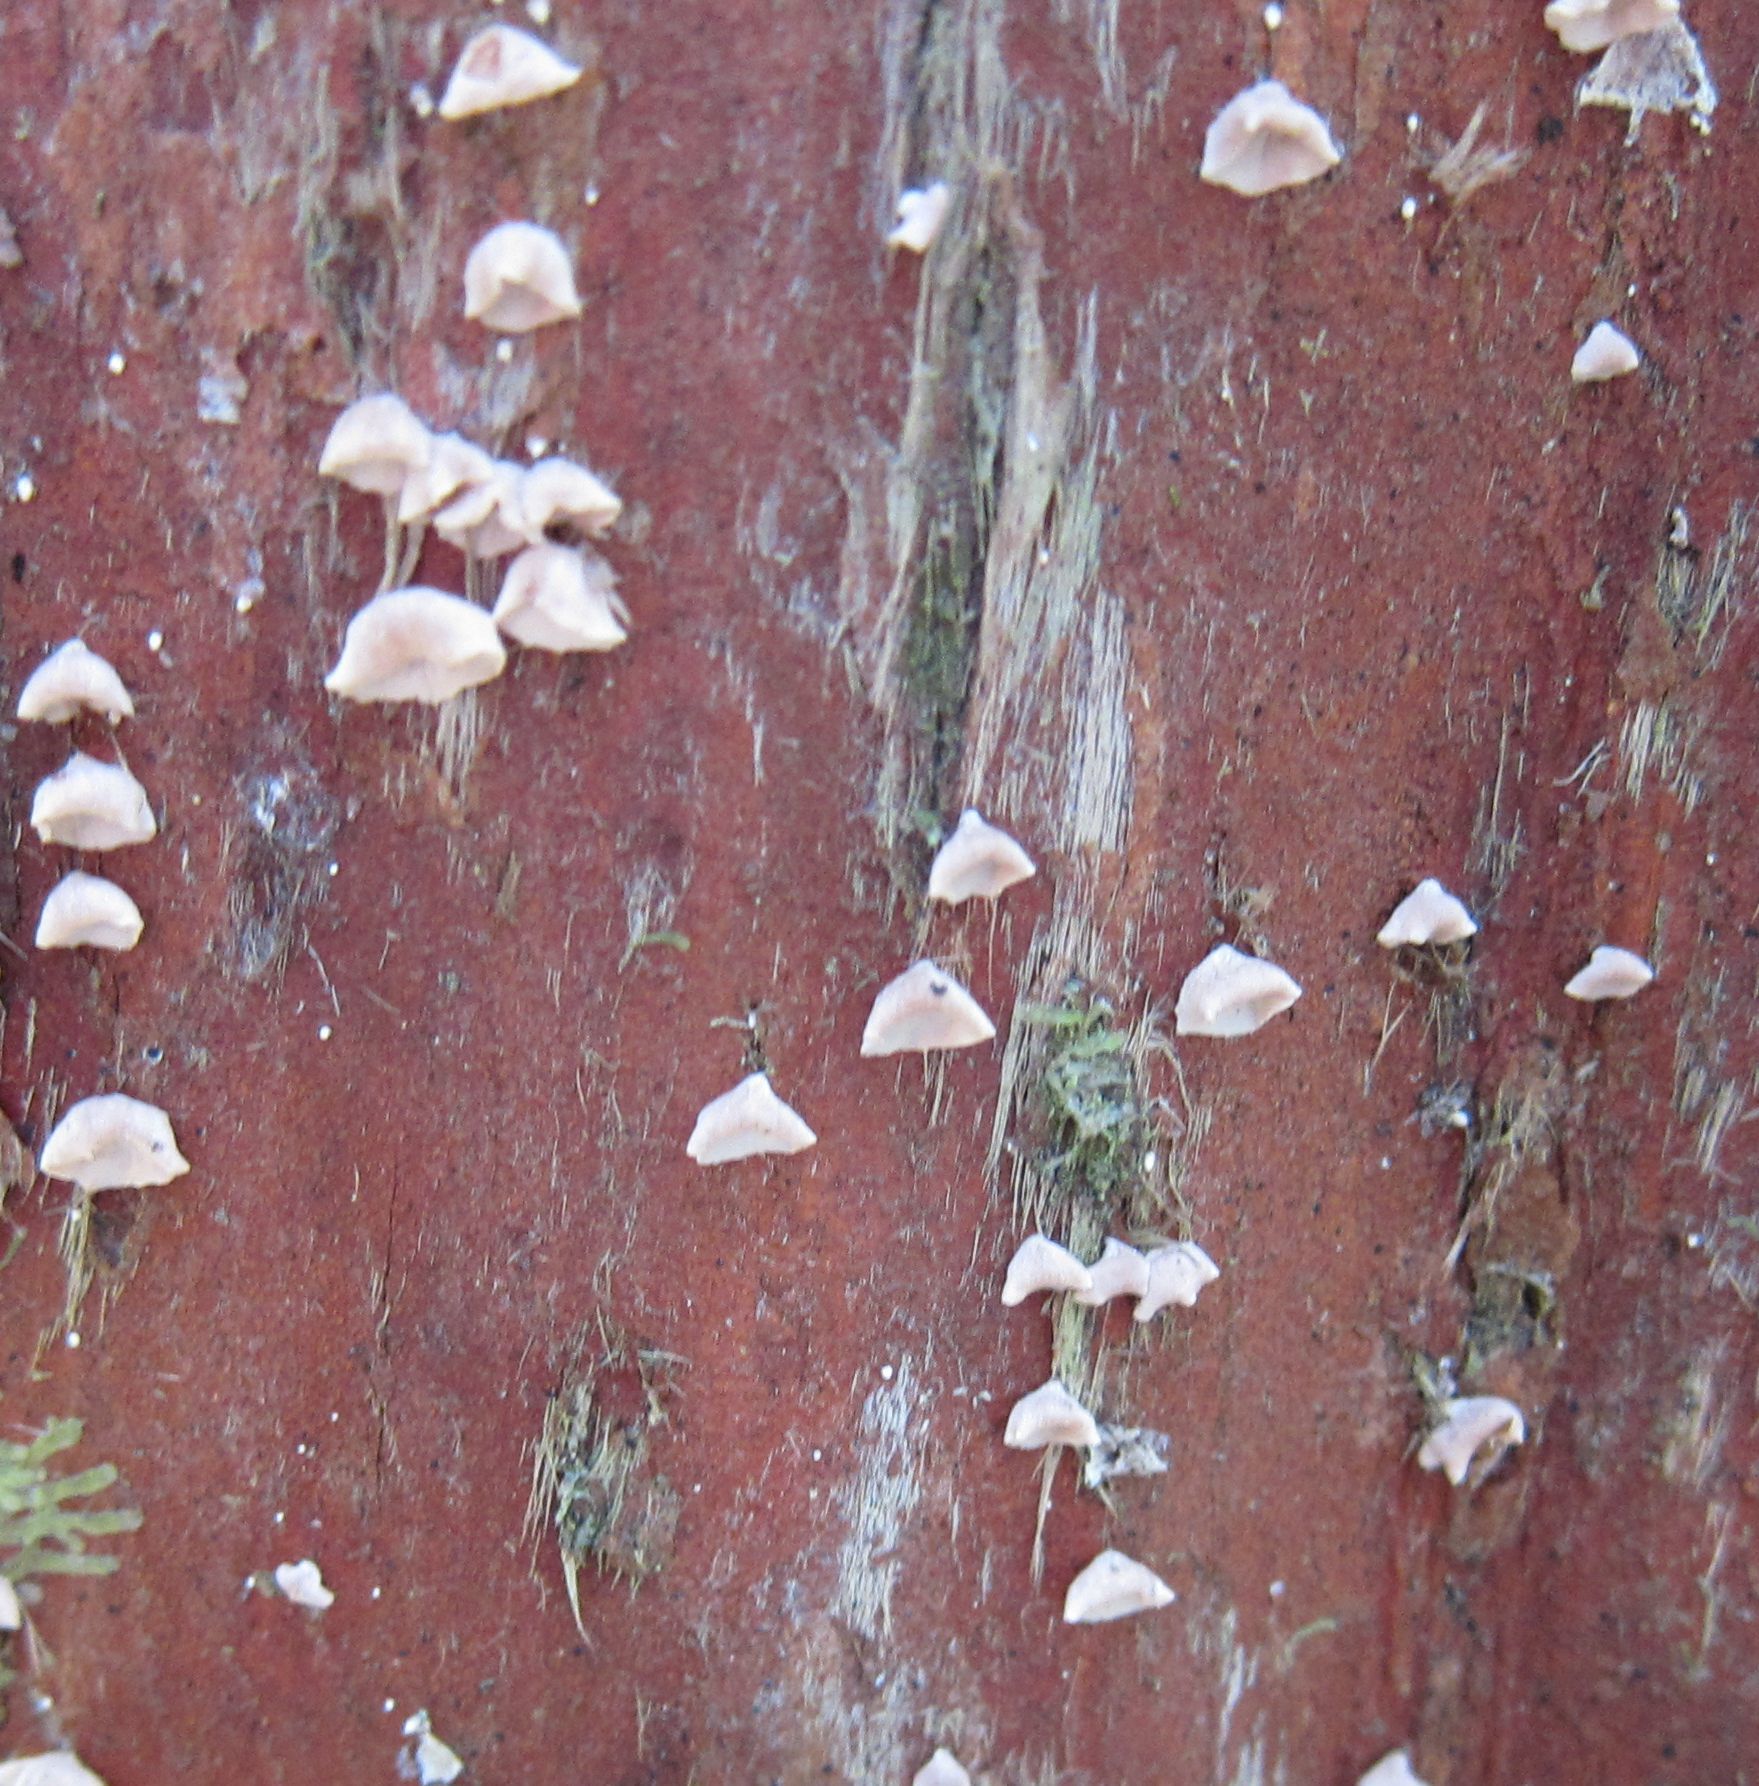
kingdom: Fungi
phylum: Basidiomycota
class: Agaricomycetes
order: Agaricales
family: Marasmiaceae
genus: Calyptella
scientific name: Calyptella totara
